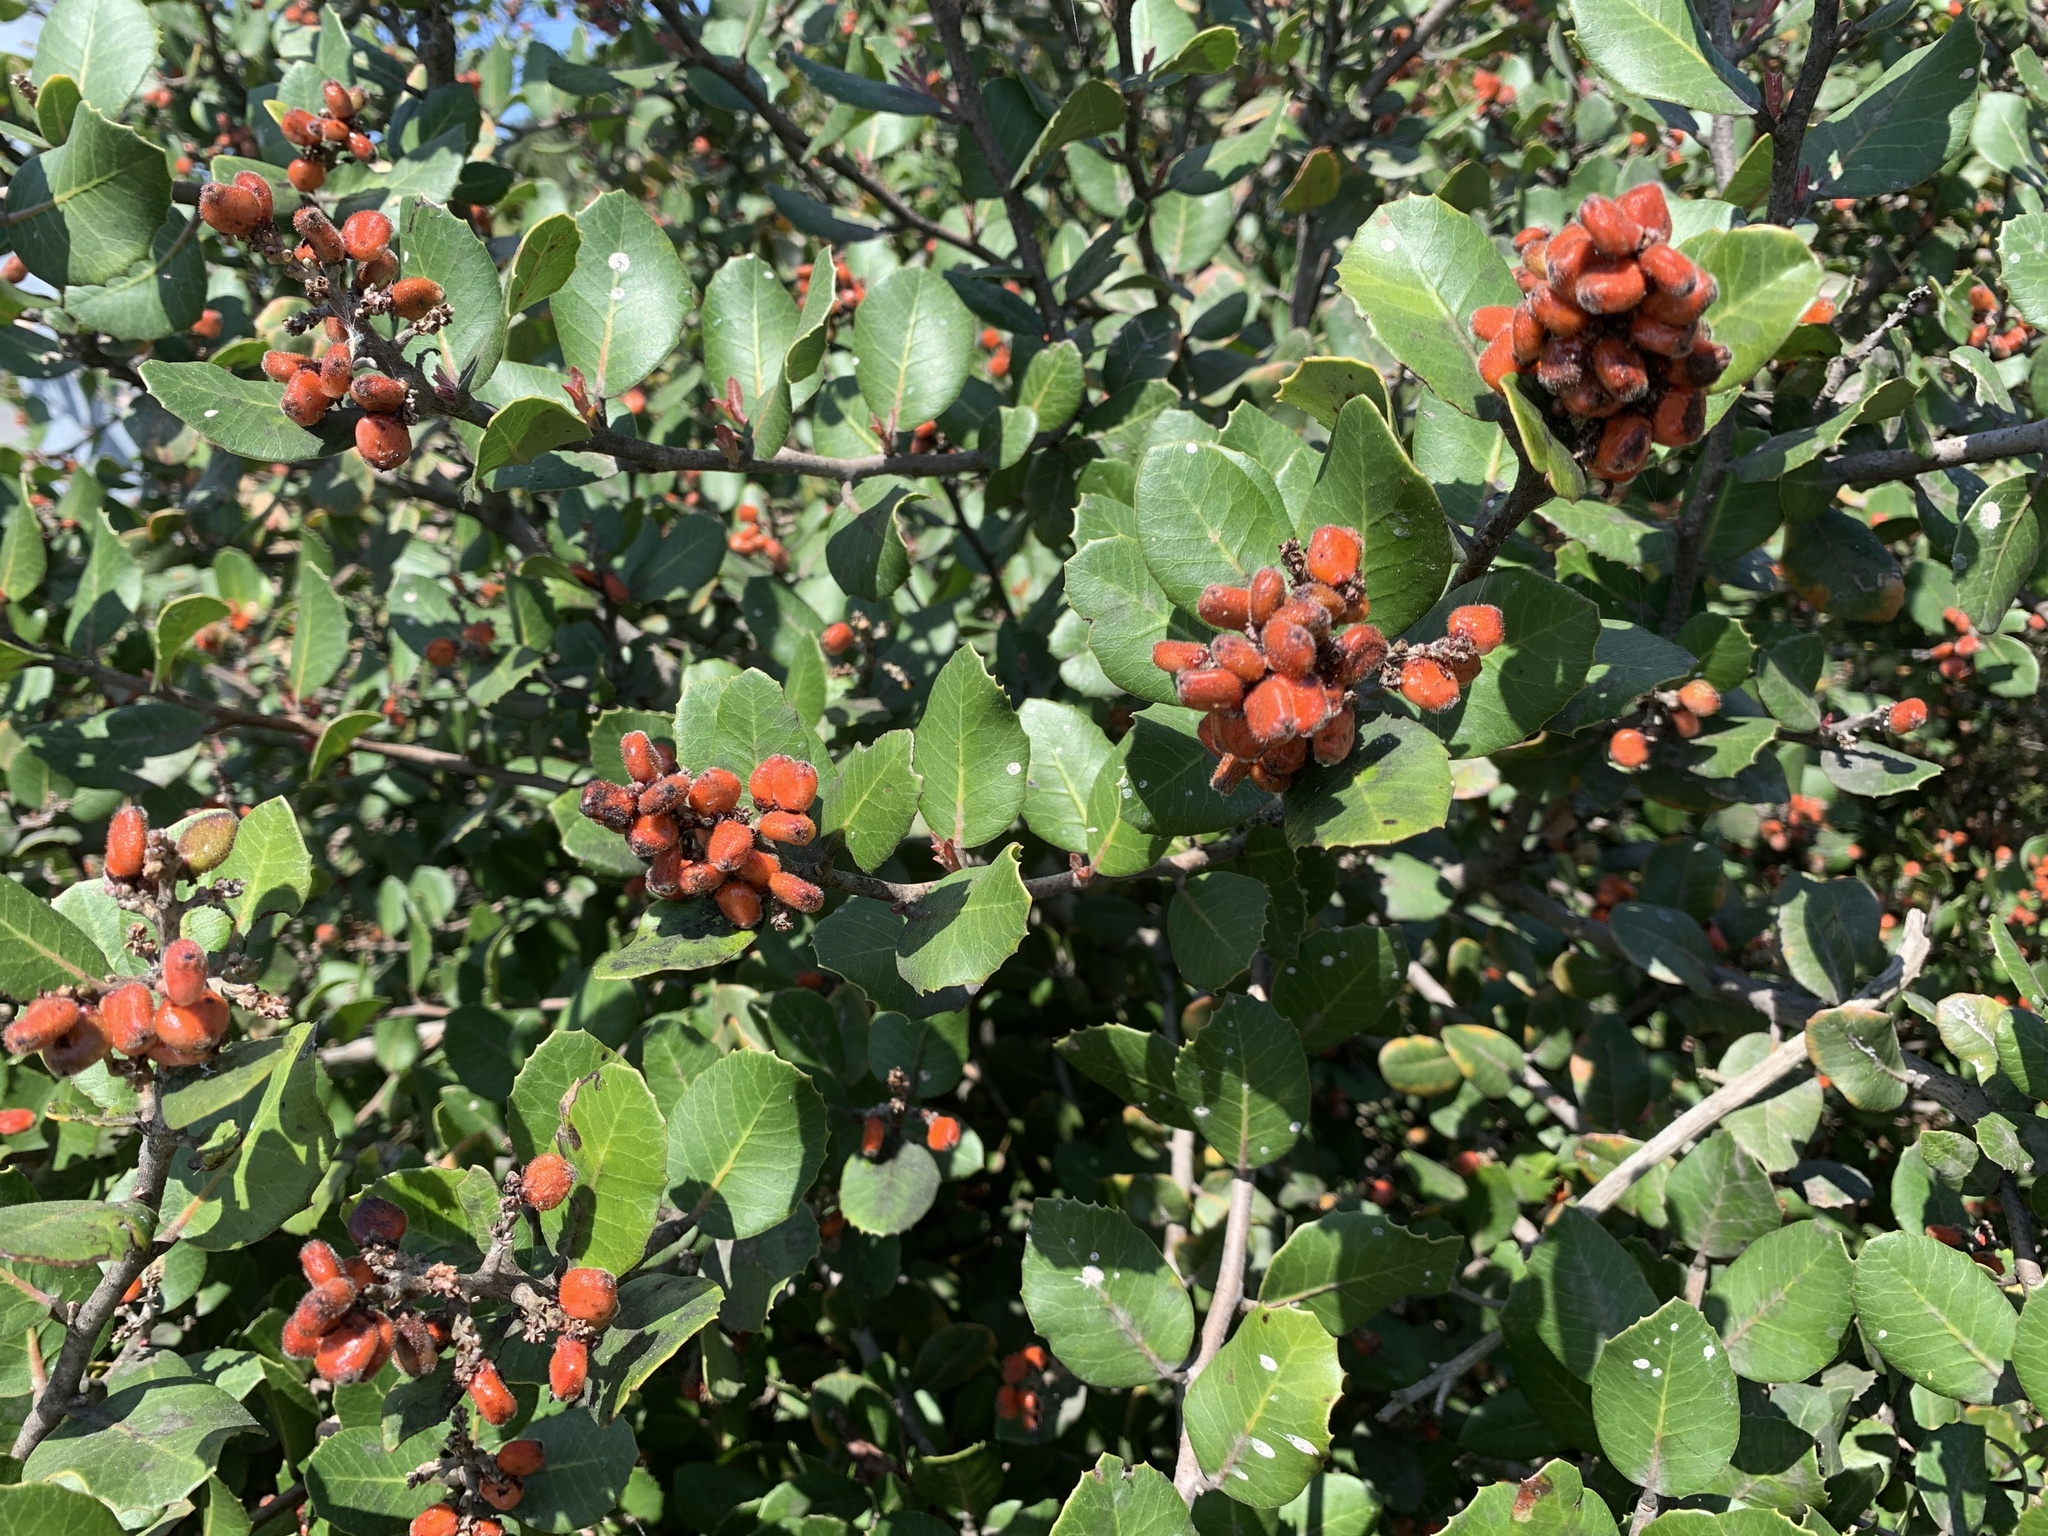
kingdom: Plantae
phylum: Tracheophyta
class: Magnoliopsida
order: Sapindales
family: Anacardiaceae
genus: Rhus
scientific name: Rhus integrifolia
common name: Lemonade sumac
